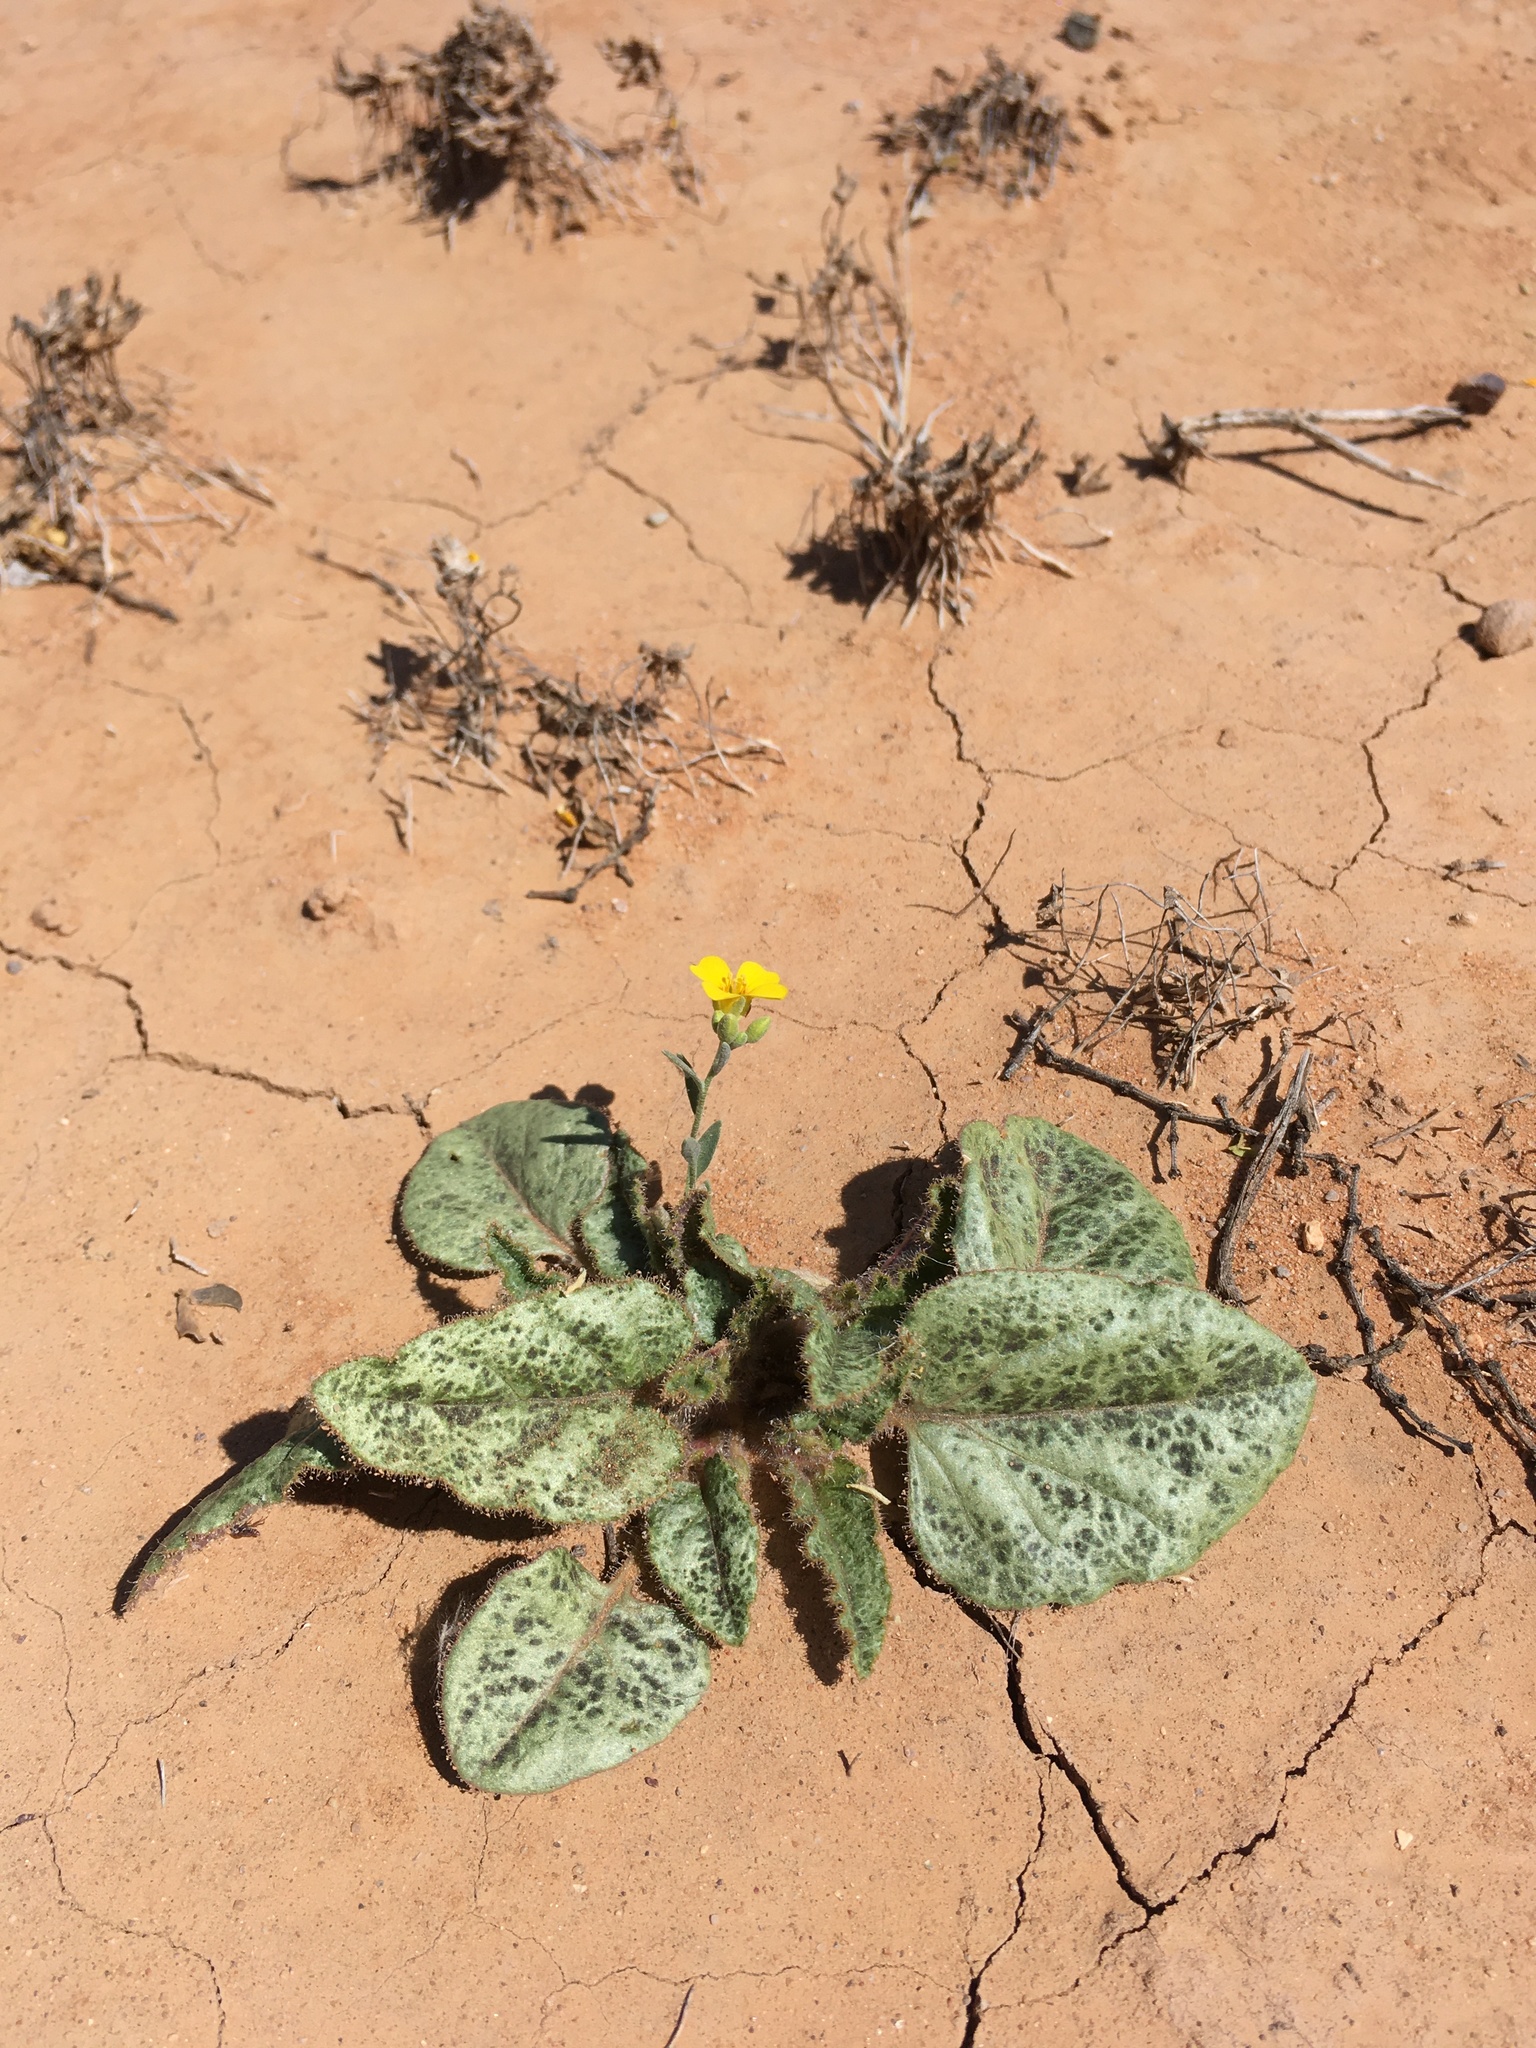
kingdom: Plantae
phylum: Tracheophyta
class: Magnoliopsida
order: Caryophyllales
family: Nyctaginaceae
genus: Nyctaginia
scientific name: Nyctaginia capitata
